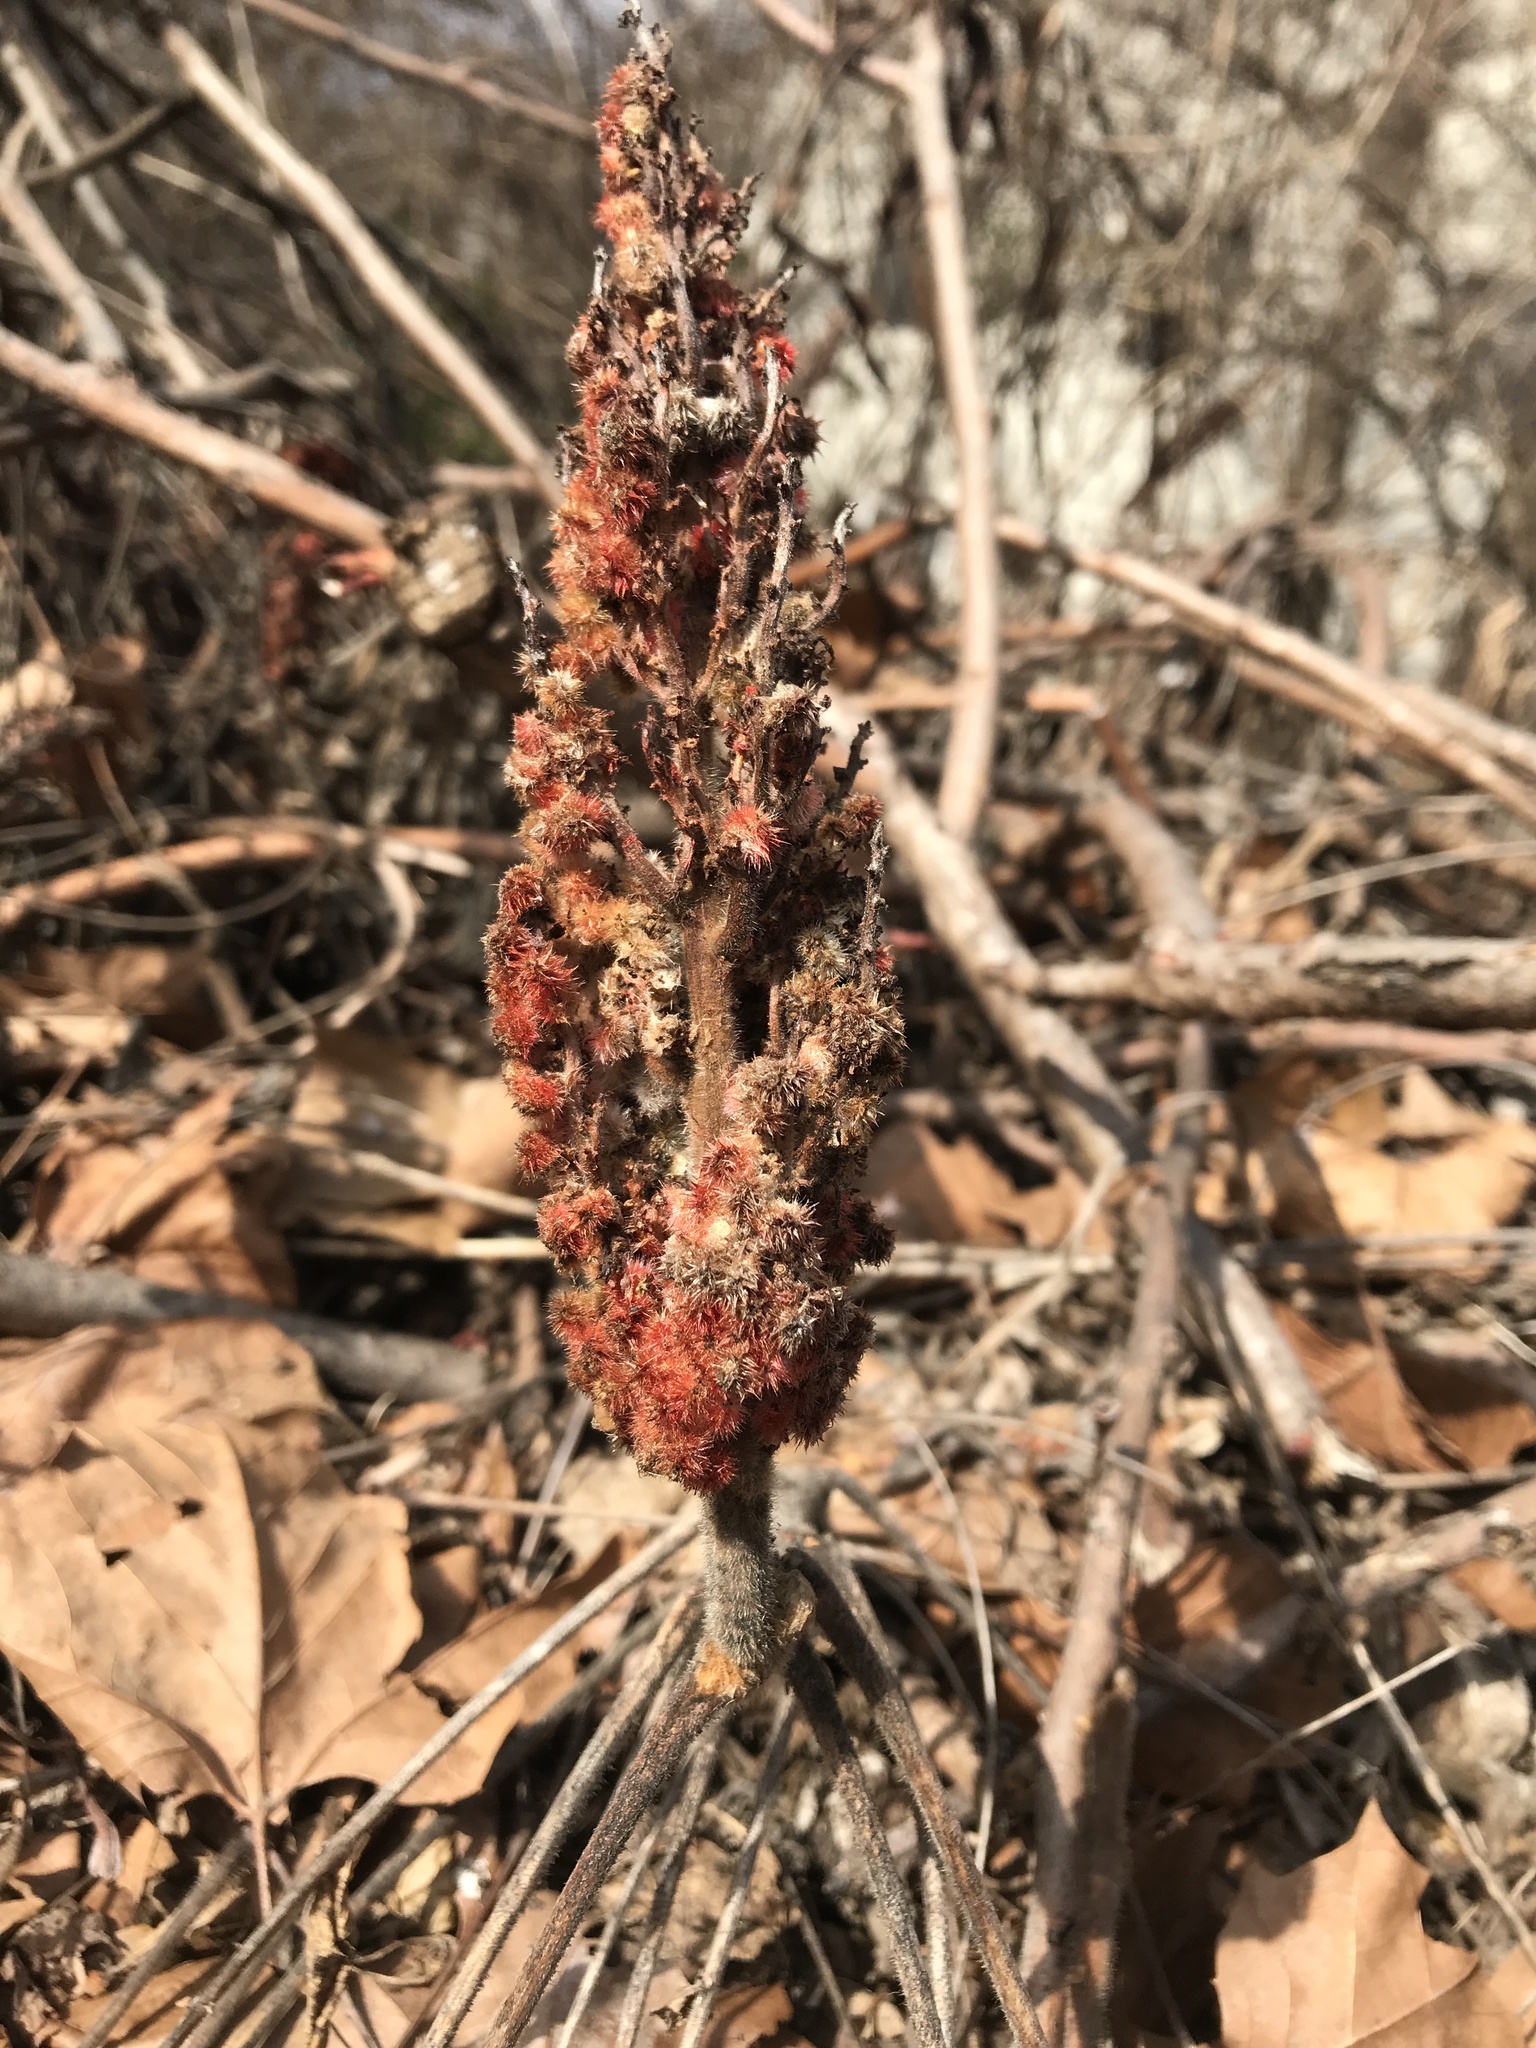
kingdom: Plantae
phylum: Tracheophyta
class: Magnoliopsida
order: Sapindales
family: Anacardiaceae
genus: Rhus
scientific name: Rhus typhina
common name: Staghorn sumac
